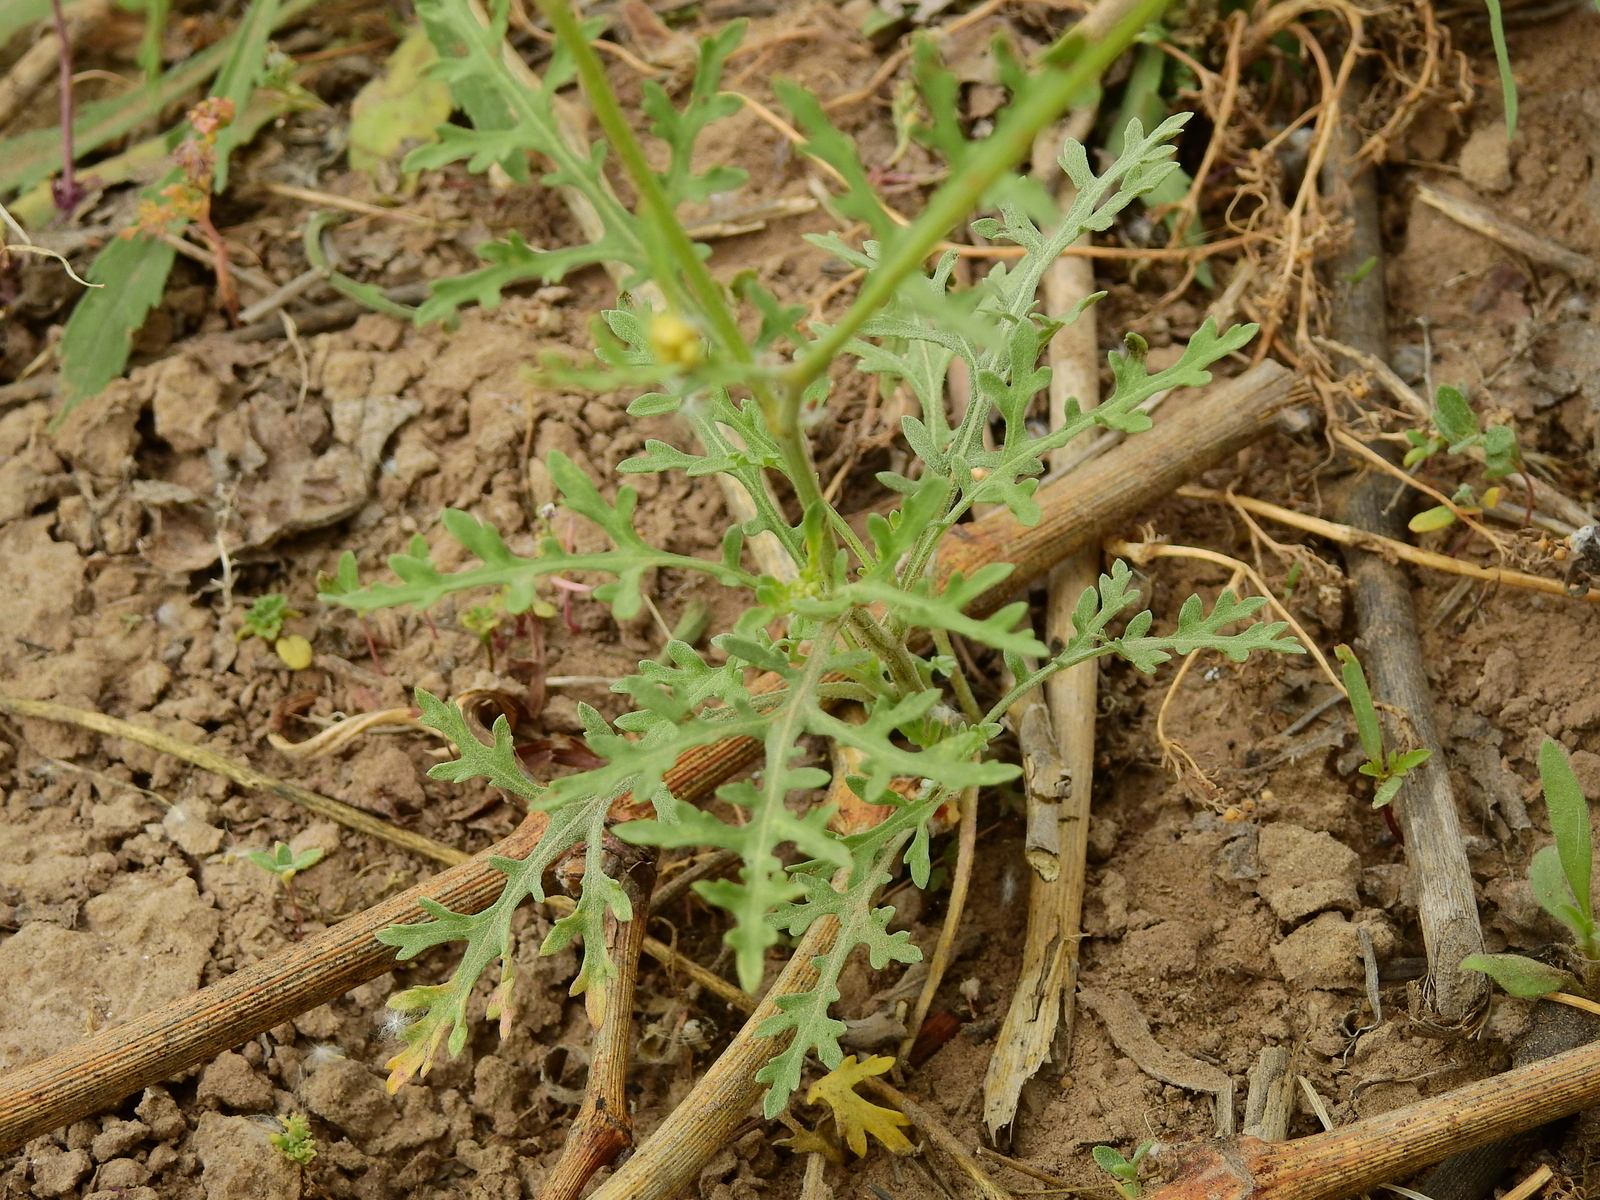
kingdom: Plantae
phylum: Tracheophyta
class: Magnoliopsida
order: Asterales
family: Asteraceae
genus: Parthenium
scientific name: Parthenium hysterophorus
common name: Santa maria feverfew
